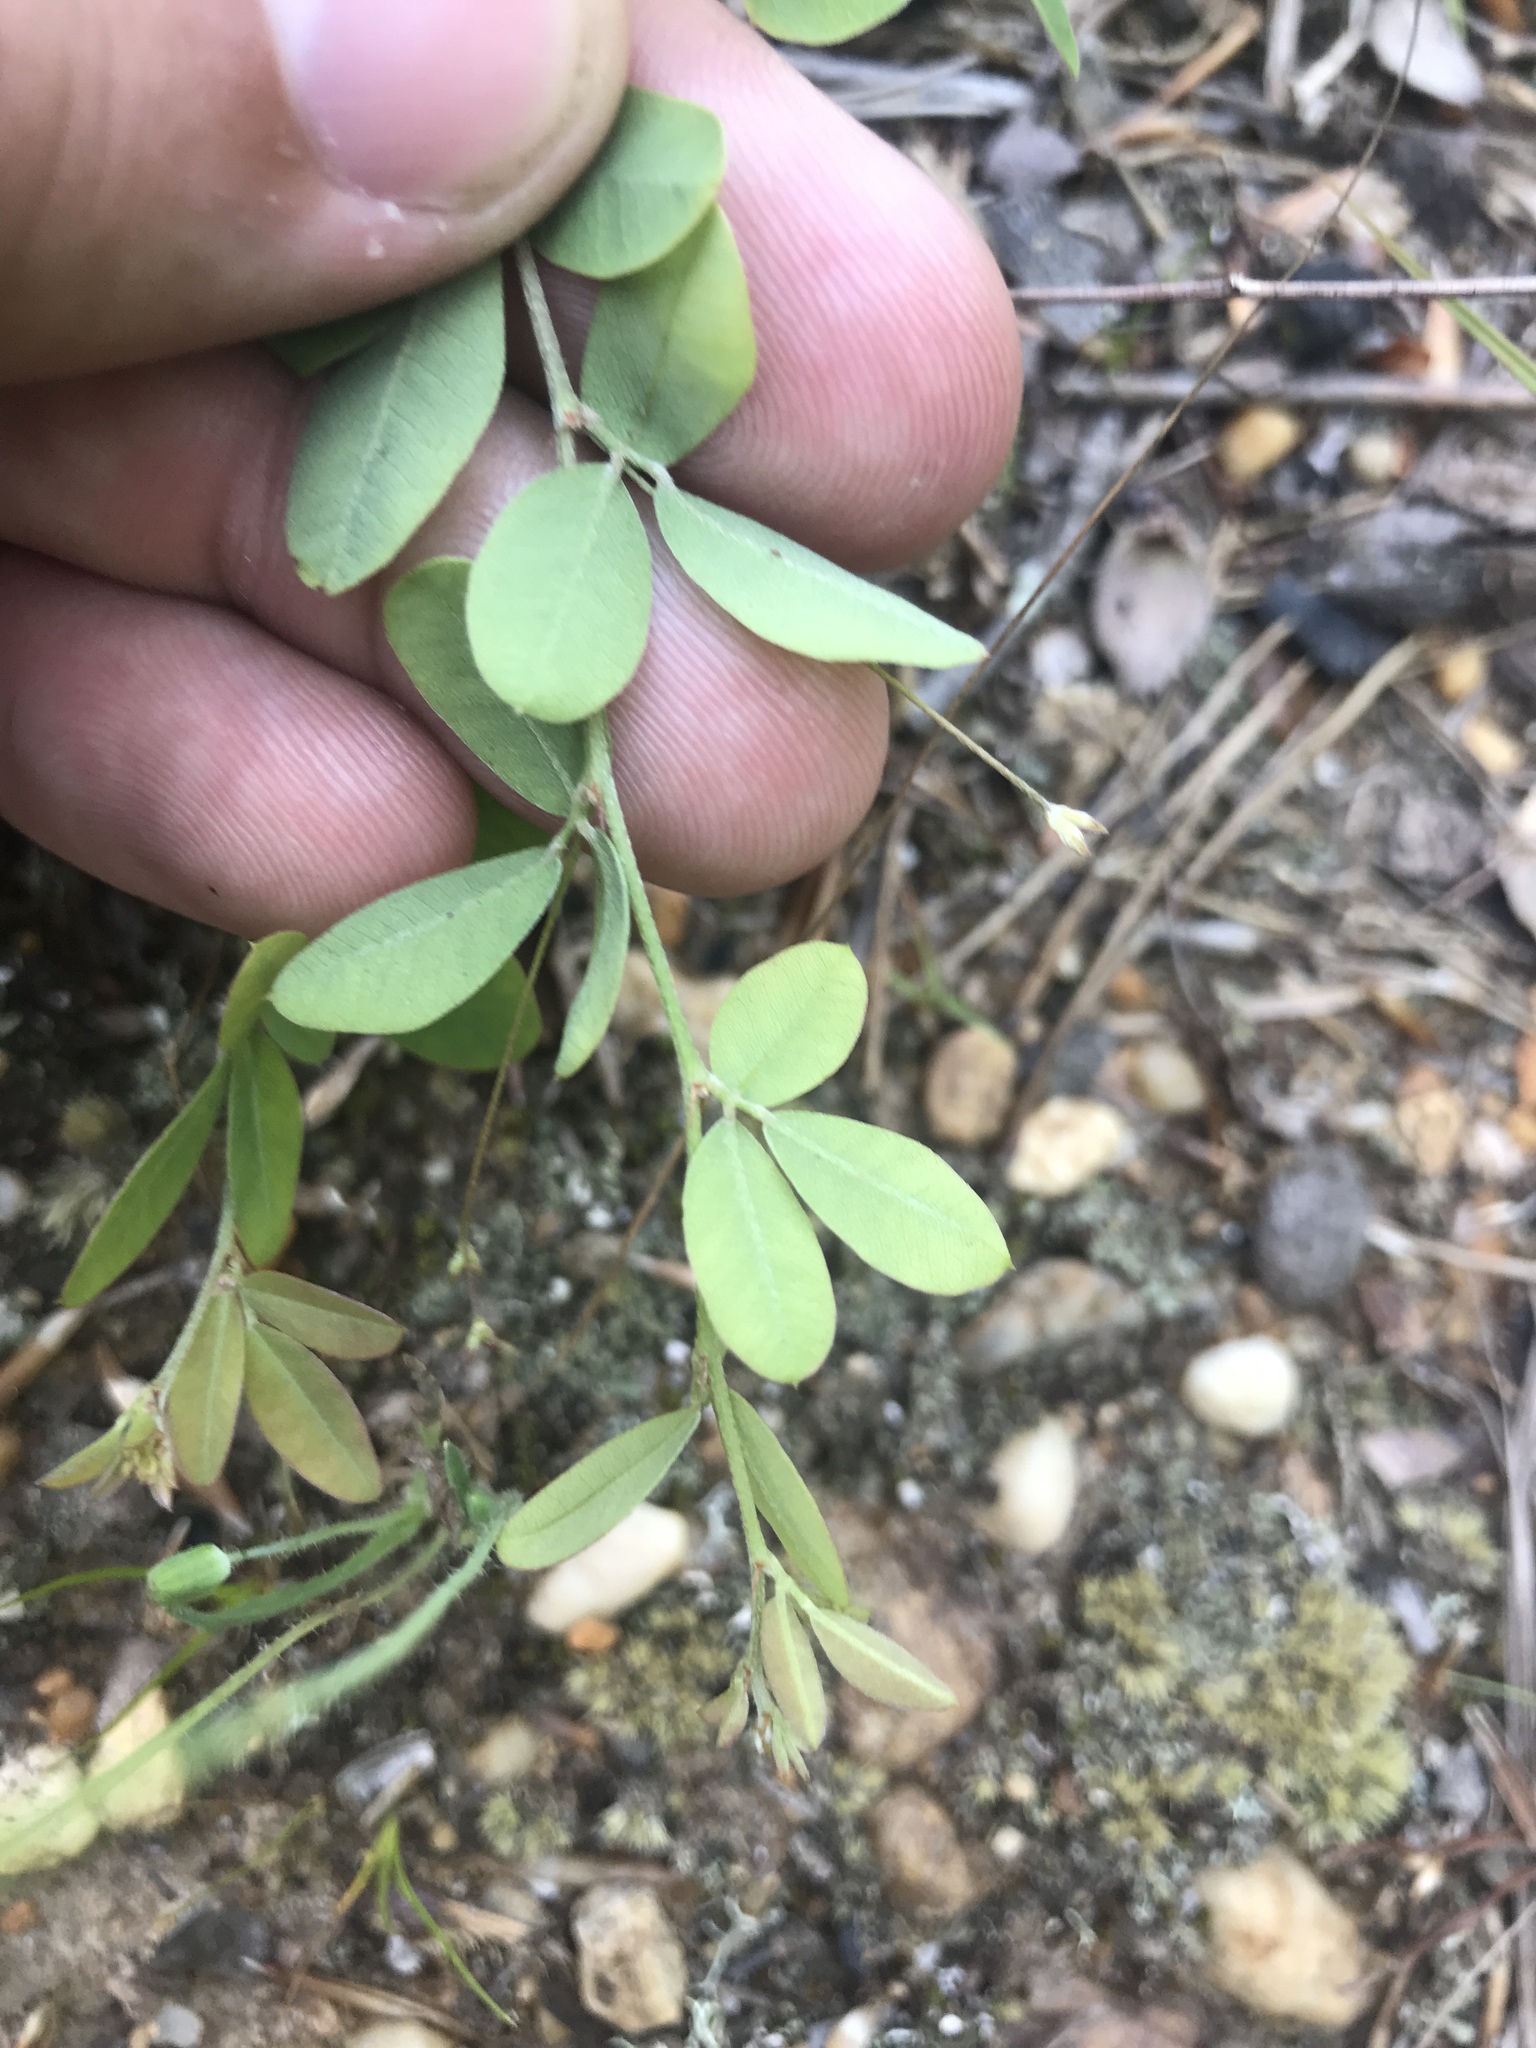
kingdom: Plantae
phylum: Tracheophyta
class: Magnoliopsida
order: Fabales
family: Fabaceae
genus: Lespedeza
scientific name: Lespedeza repens
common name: Creeping bush-clover
